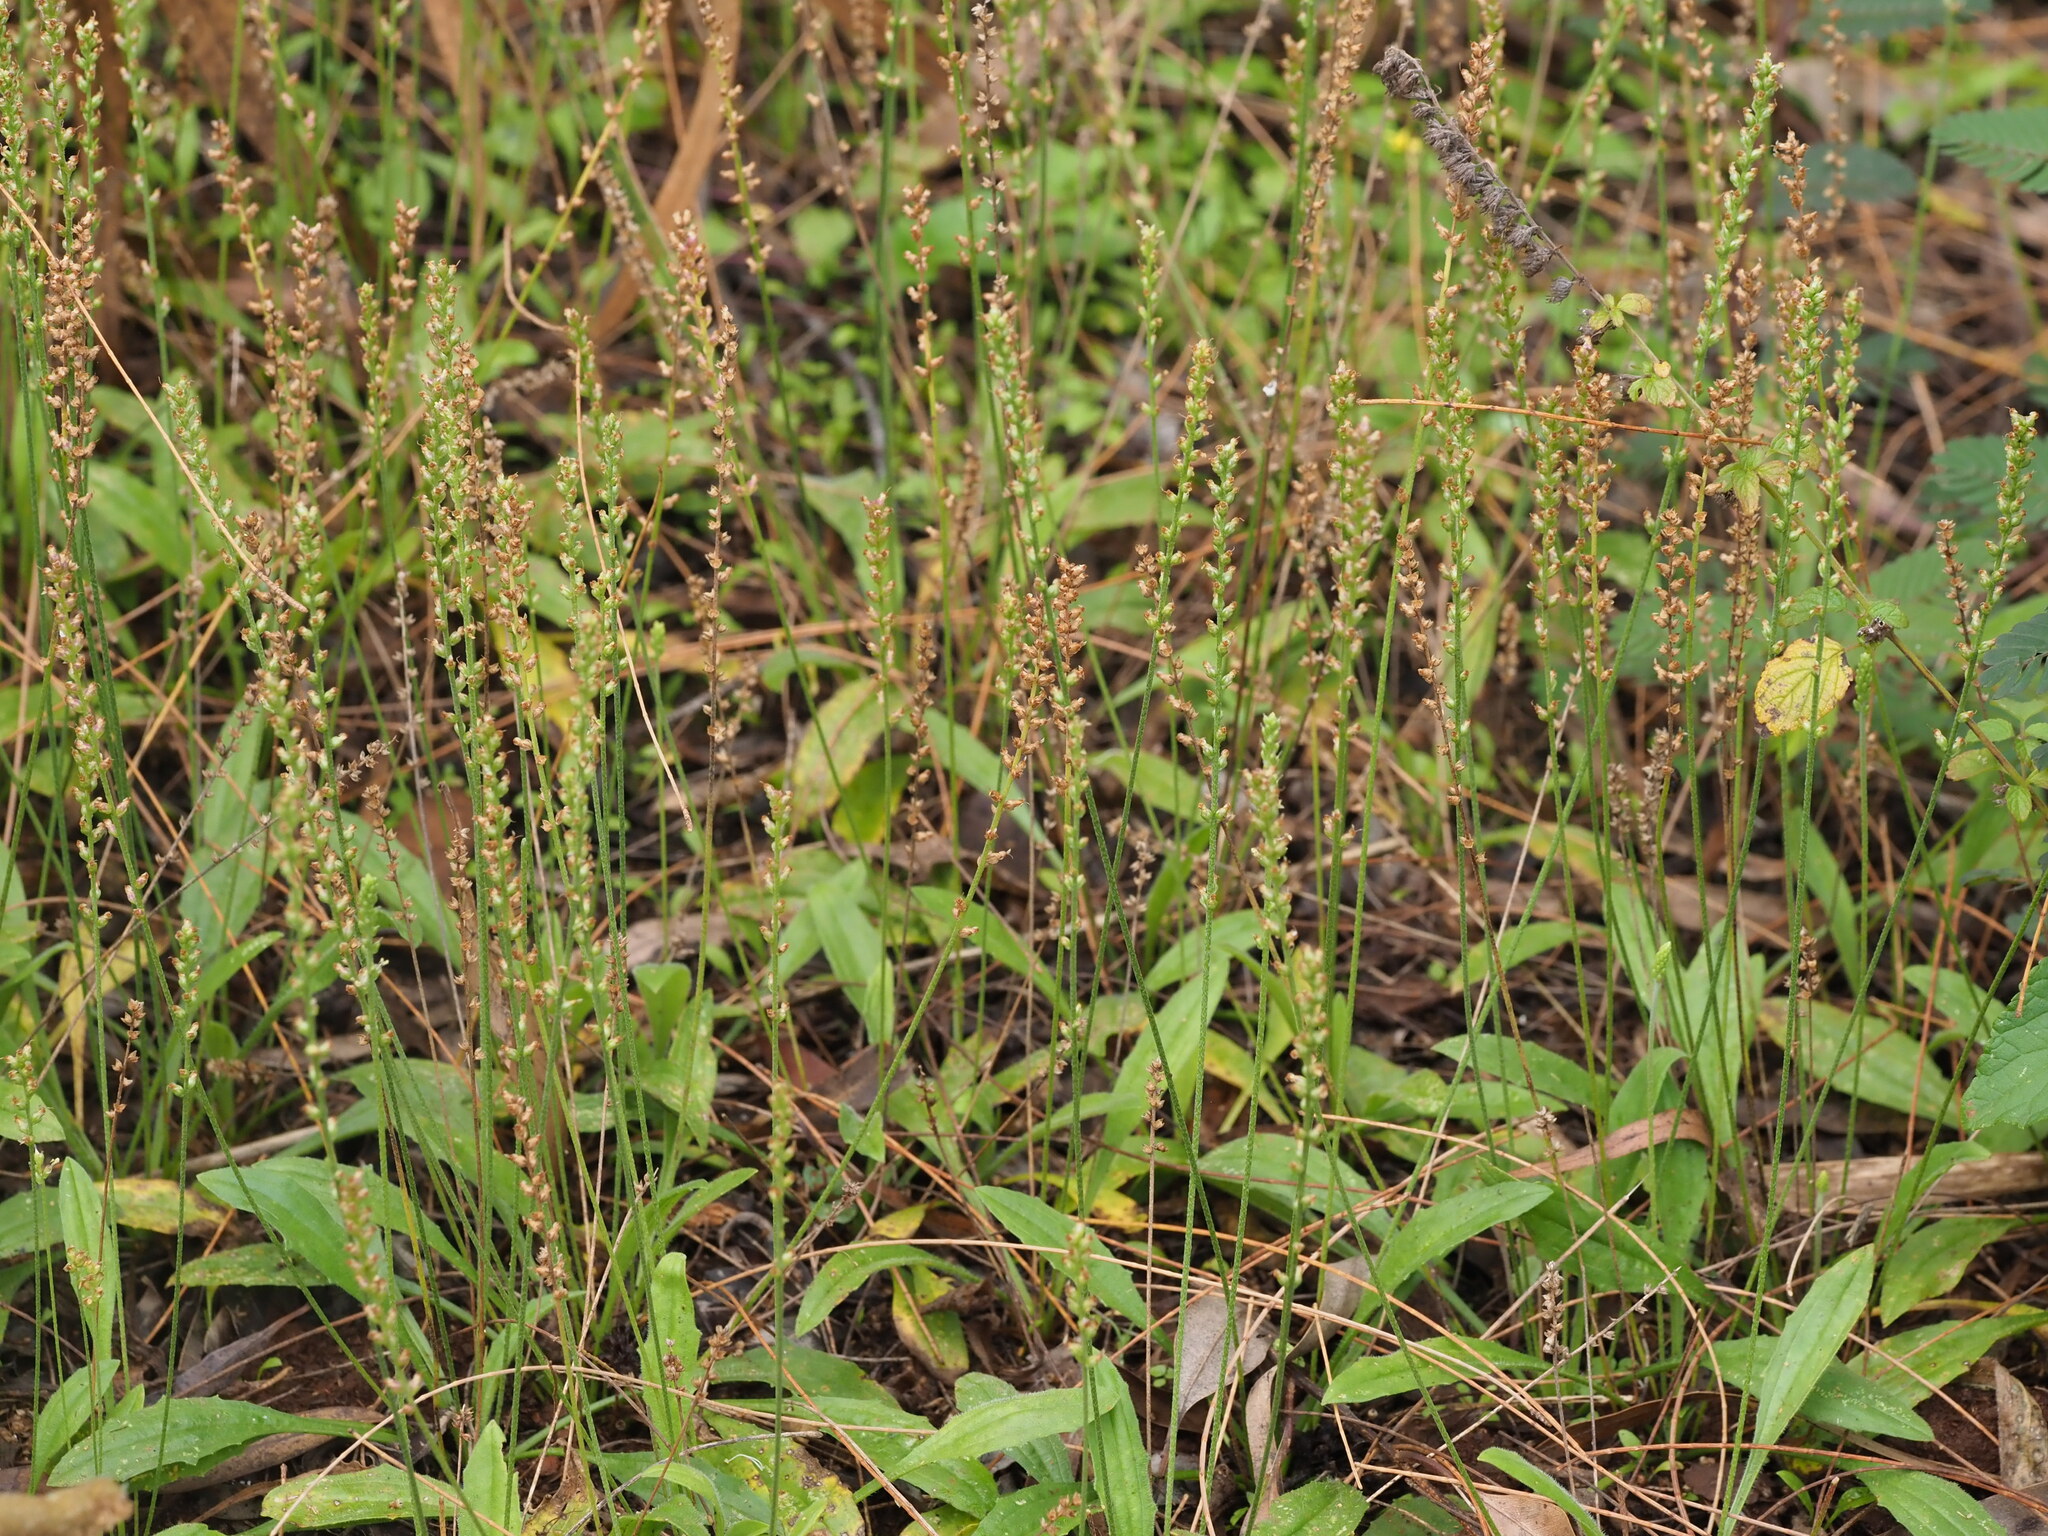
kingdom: Plantae
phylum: Tracheophyta
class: Magnoliopsida
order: Lamiales
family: Plantaginaceae
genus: Plantago
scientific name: Plantago debilis
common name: Weak plantain
